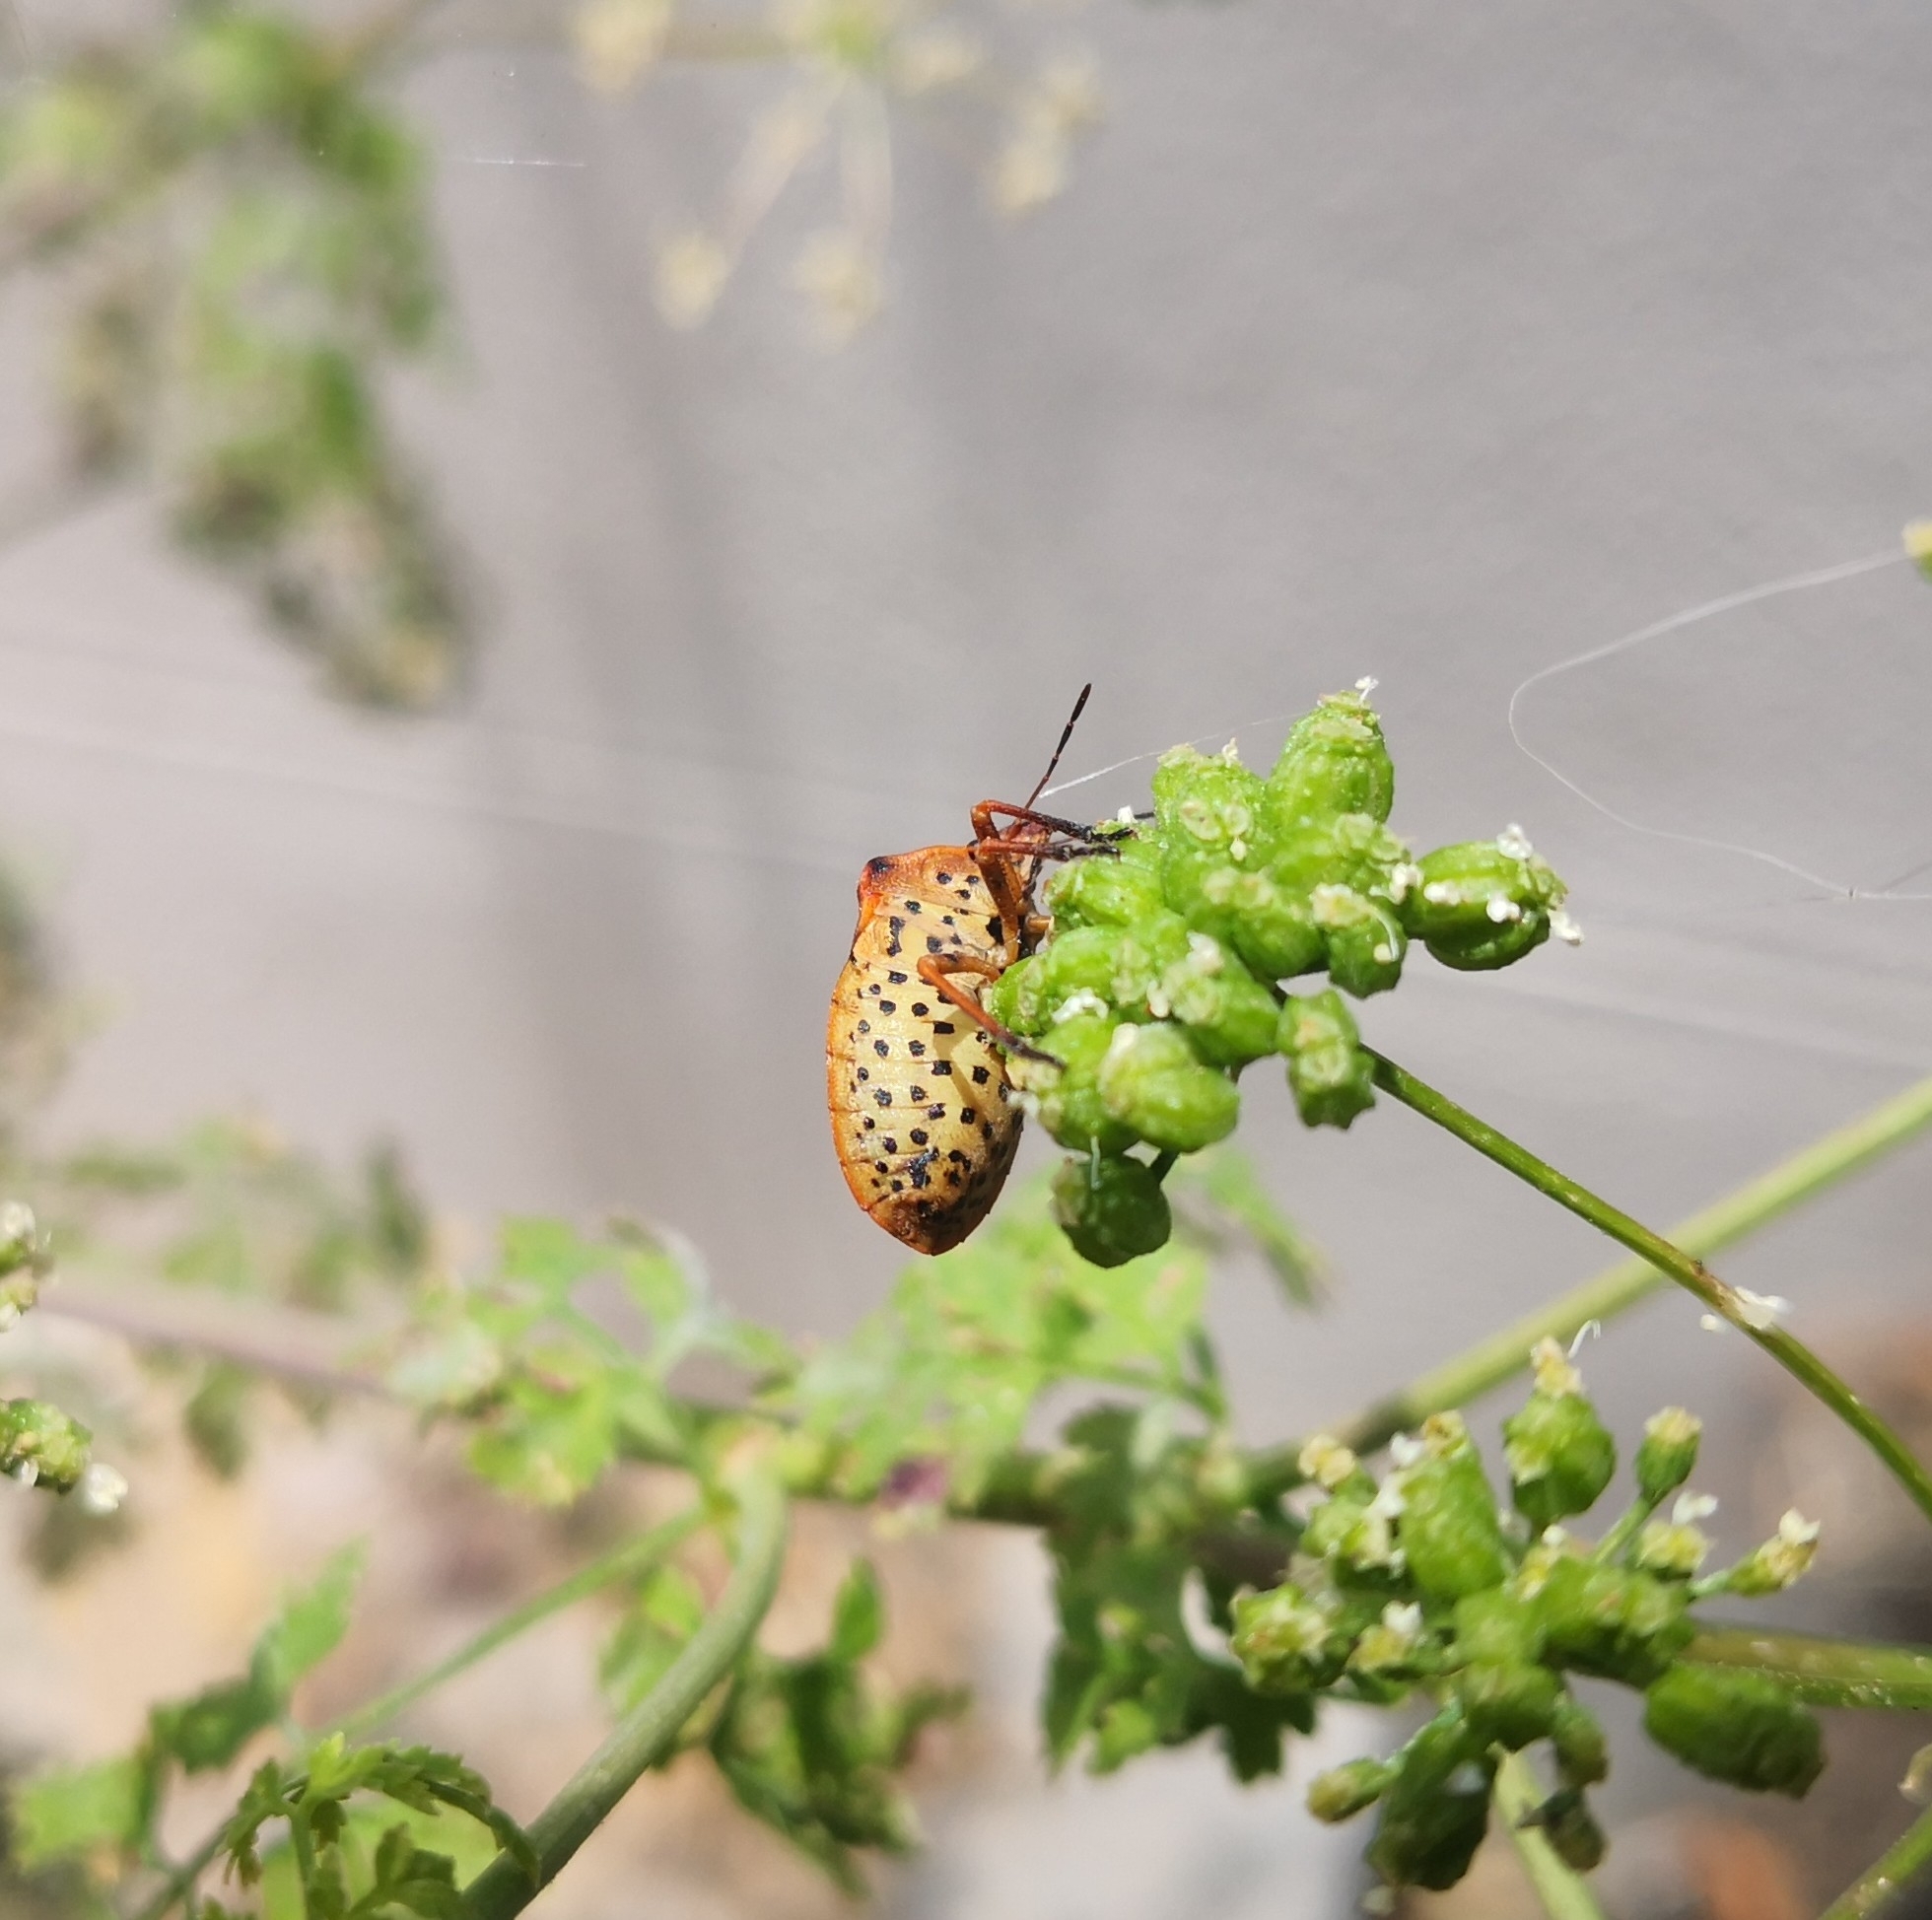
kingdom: Animalia
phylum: Arthropoda
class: Insecta
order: Hemiptera
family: Pentatomidae
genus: Graphosoma
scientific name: Graphosoma semipunctatum
